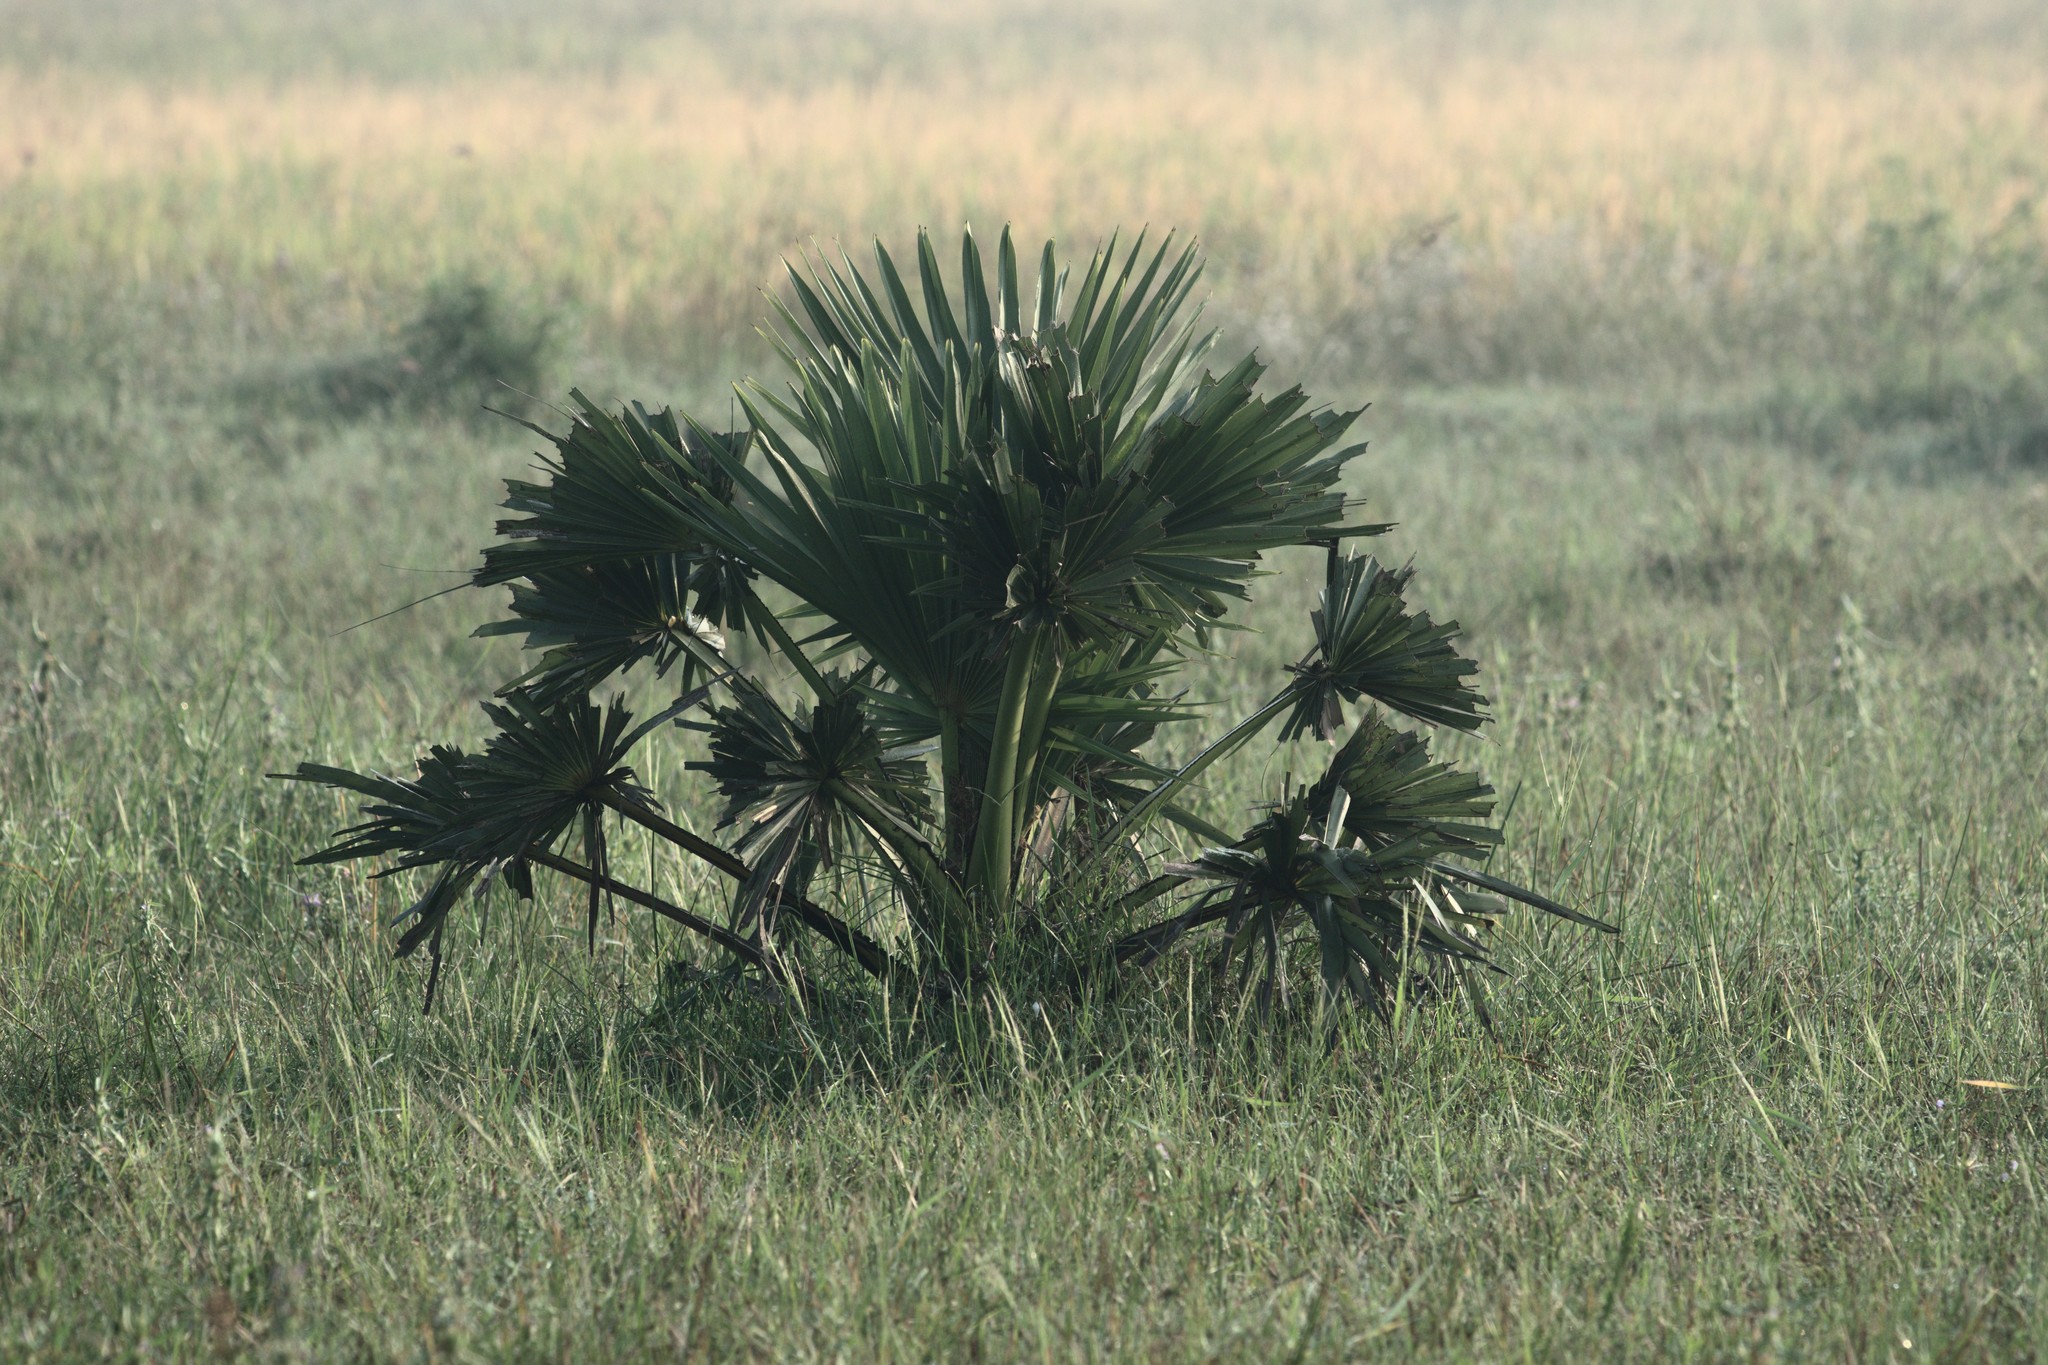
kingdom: Plantae
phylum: Tracheophyta
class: Liliopsida
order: Arecales
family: Arecaceae
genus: Borassus
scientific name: Borassus flabellifer
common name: Palmyra palm
